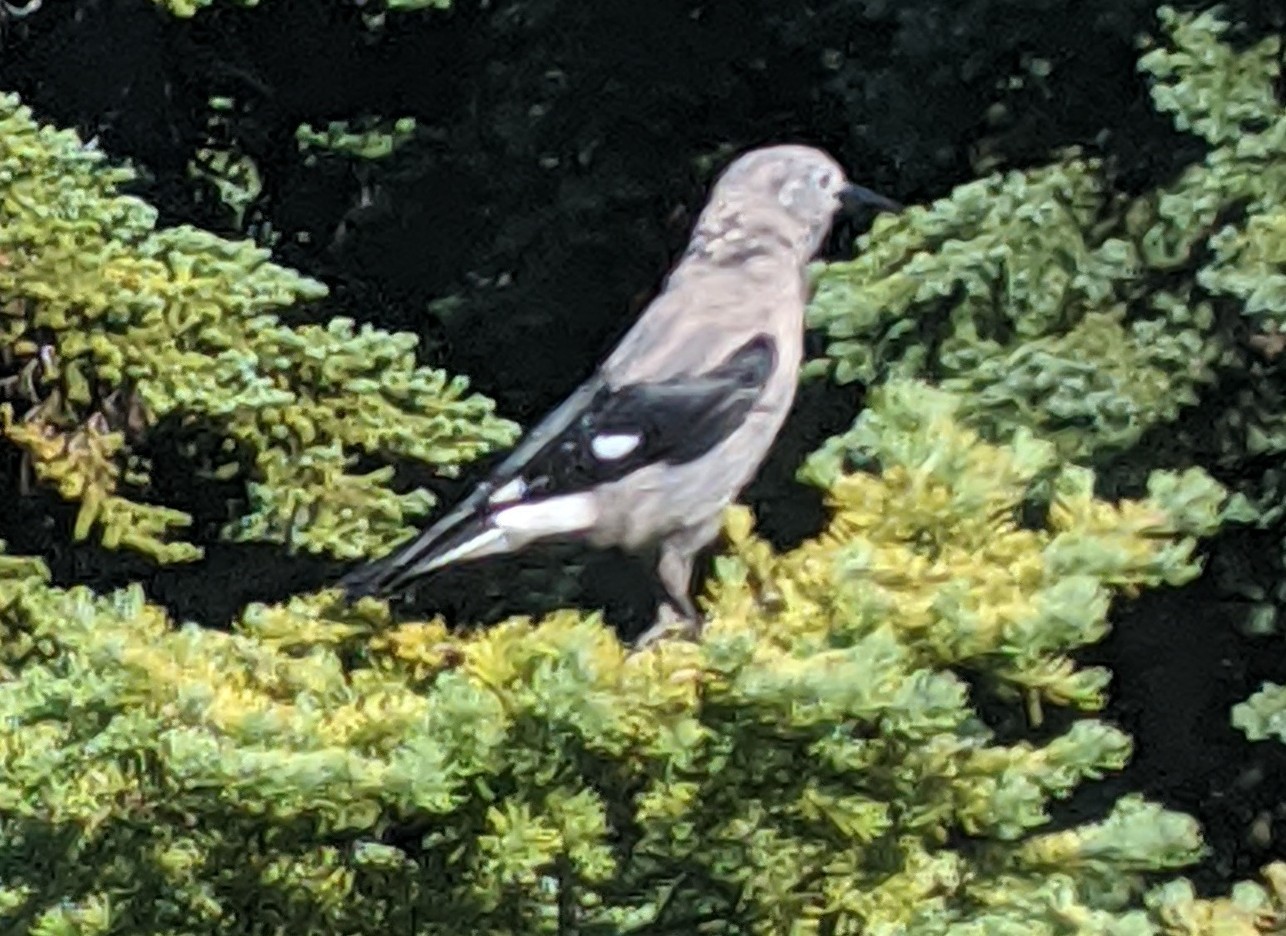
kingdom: Animalia
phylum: Chordata
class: Aves
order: Passeriformes
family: Corvidae
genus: Nucifraga
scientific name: Nucifraga columbiana
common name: Clark's nutcracker
